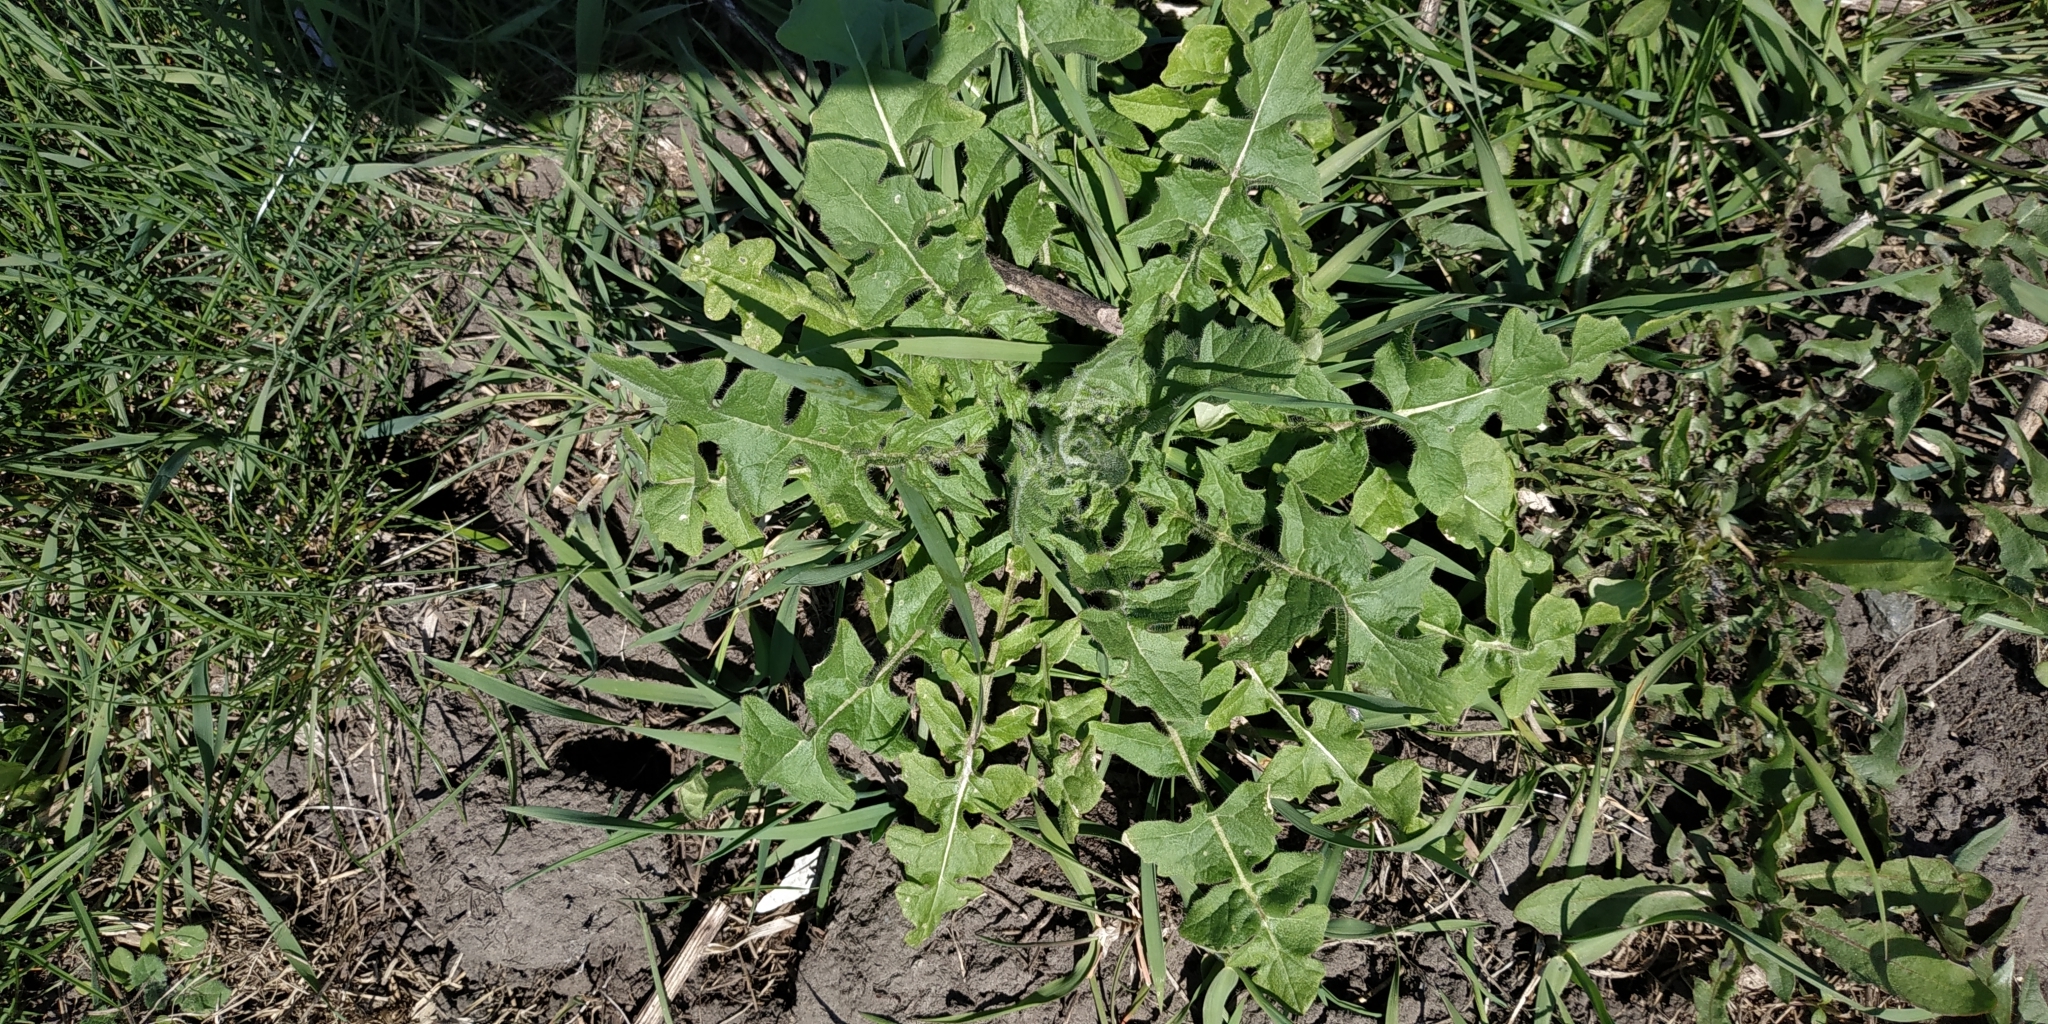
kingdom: Plantae
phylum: Tracheophyta
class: Magnoliopsida
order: Brassicales
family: Brassicaceae
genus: Sisymbrium
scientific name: Sisymbrium loeselii
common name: False london-rocket
